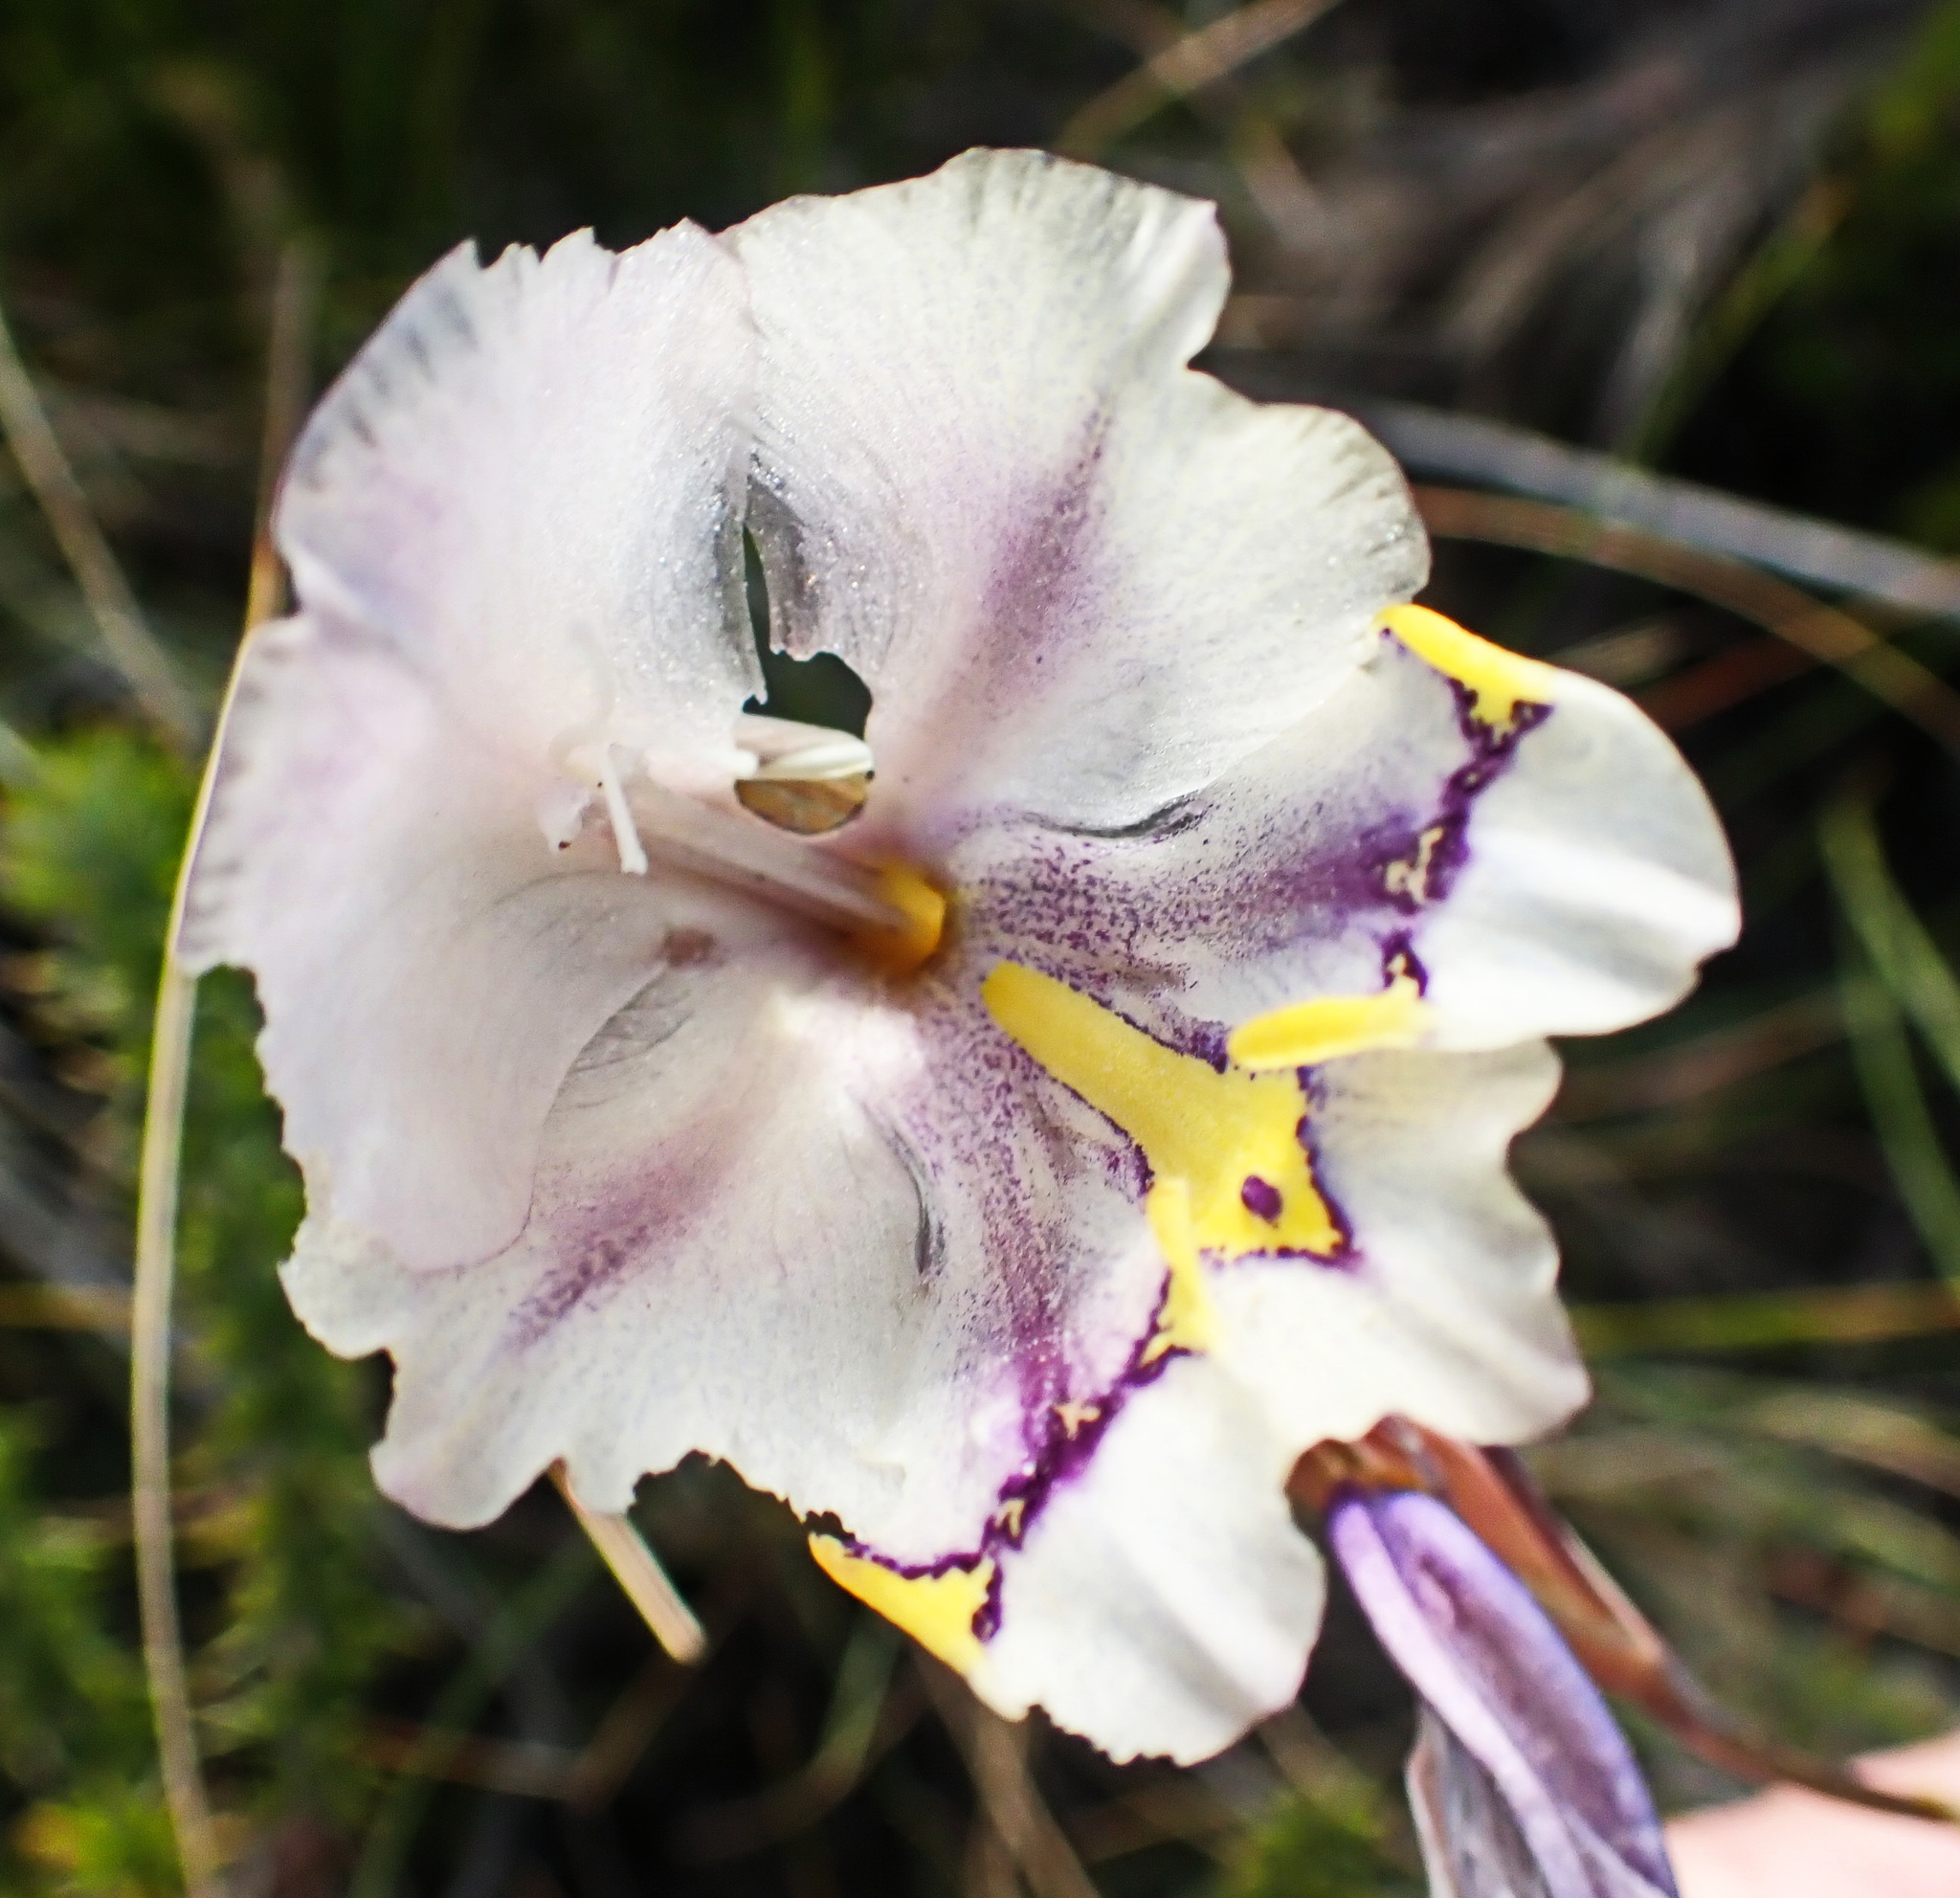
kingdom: Plantae
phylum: Tracheophyta
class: Liliopsida
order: Asparagales
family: Iridaceae
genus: Gladiolus
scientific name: Gladiolus patersoniae
